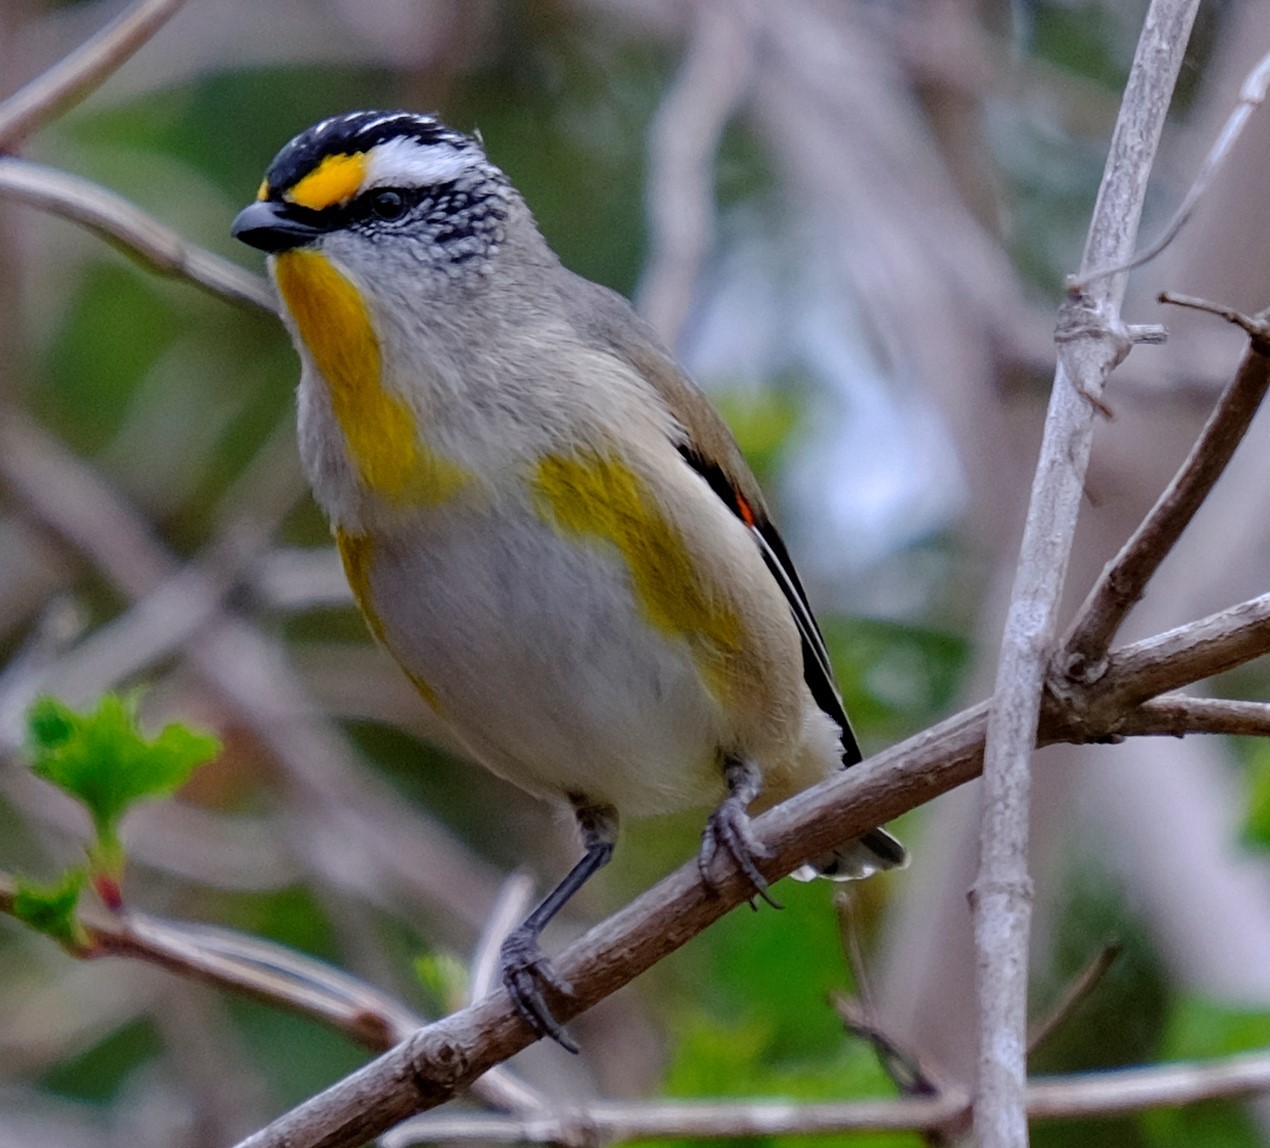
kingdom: Animalia
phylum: Chordata
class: Aves
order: Passeriformes
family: Pardalotidae
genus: Pardalotus
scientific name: Pardalotus striatus
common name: Striated pardalote
